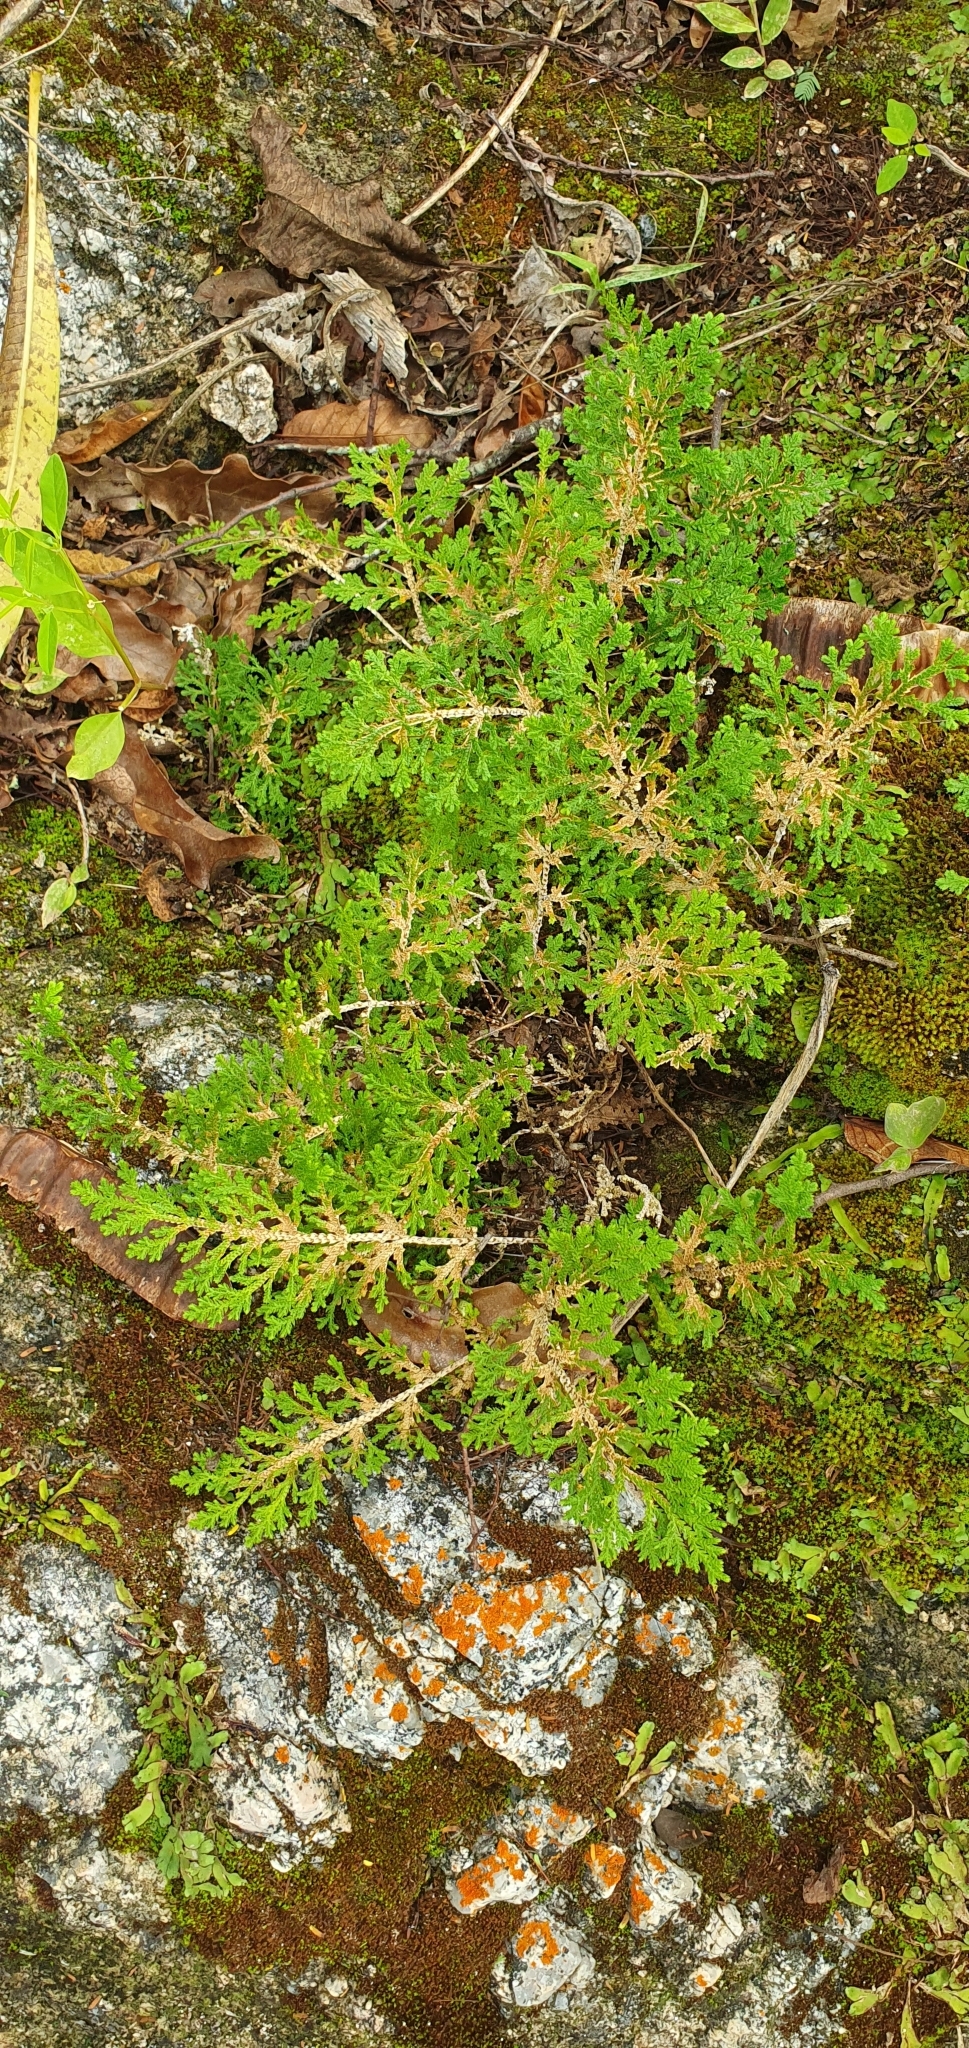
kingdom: Plantae
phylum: Tracheophyta
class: Lycopodiopsida
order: Selaginellales
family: Selaginellaceae
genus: Selaginella
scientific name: Selaginella pallescens
